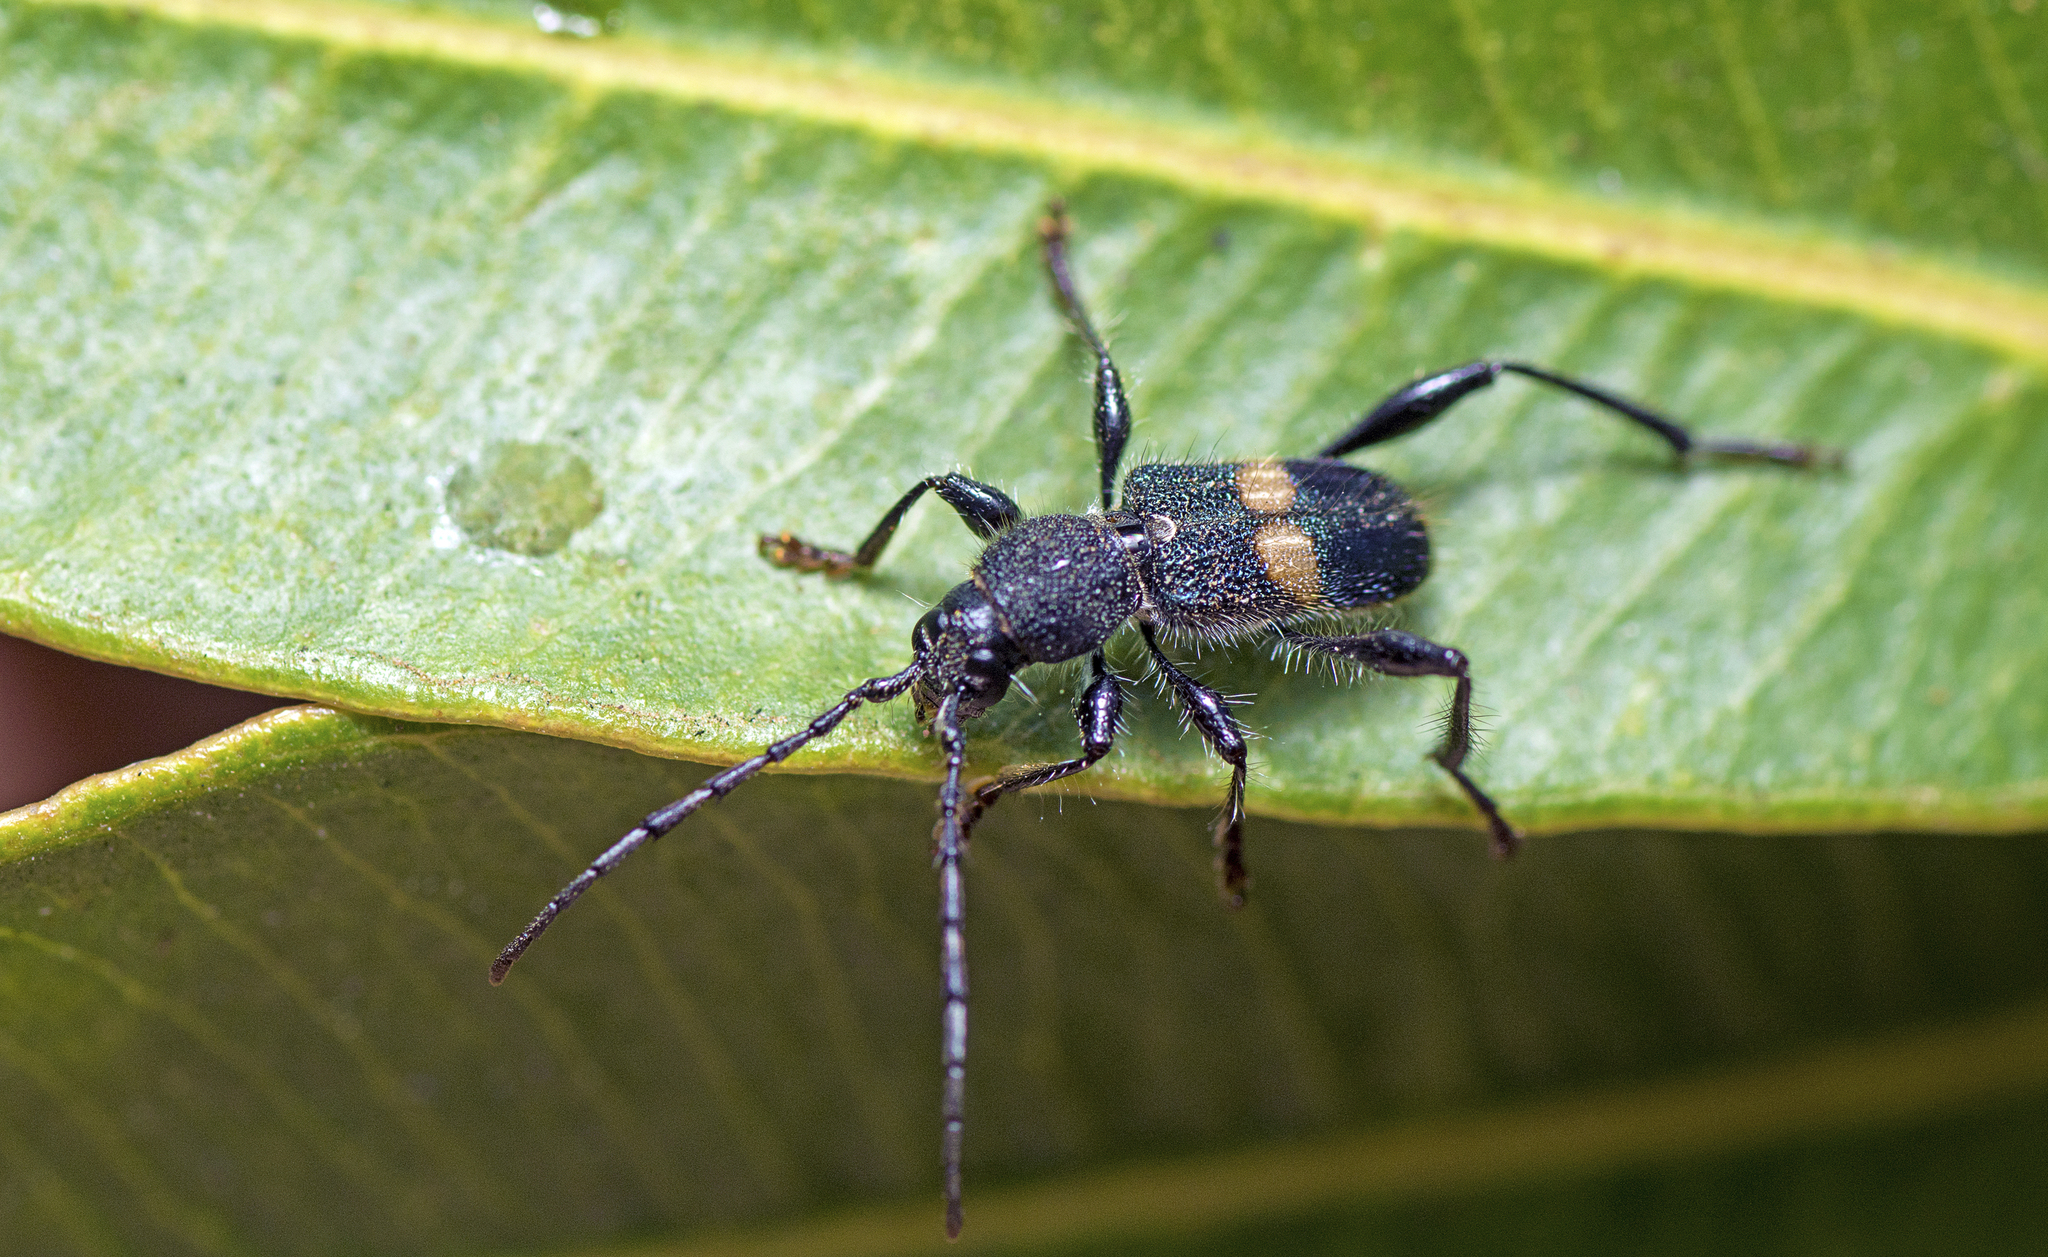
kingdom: Animalia
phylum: Arthropoda
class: Insecta
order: Coleoptera
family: Cerambycidae
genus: Obrida
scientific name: Obrida comata
